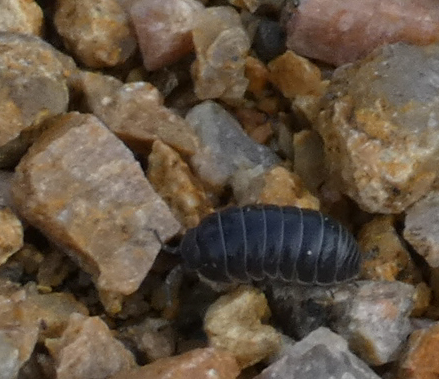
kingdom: Animalia
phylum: Arthropoda
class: Malacostraca
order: Isopoda
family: Armadillidiidae
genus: Armadillidium
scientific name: Armadillidium vulgare
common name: Common pill woodlouse
